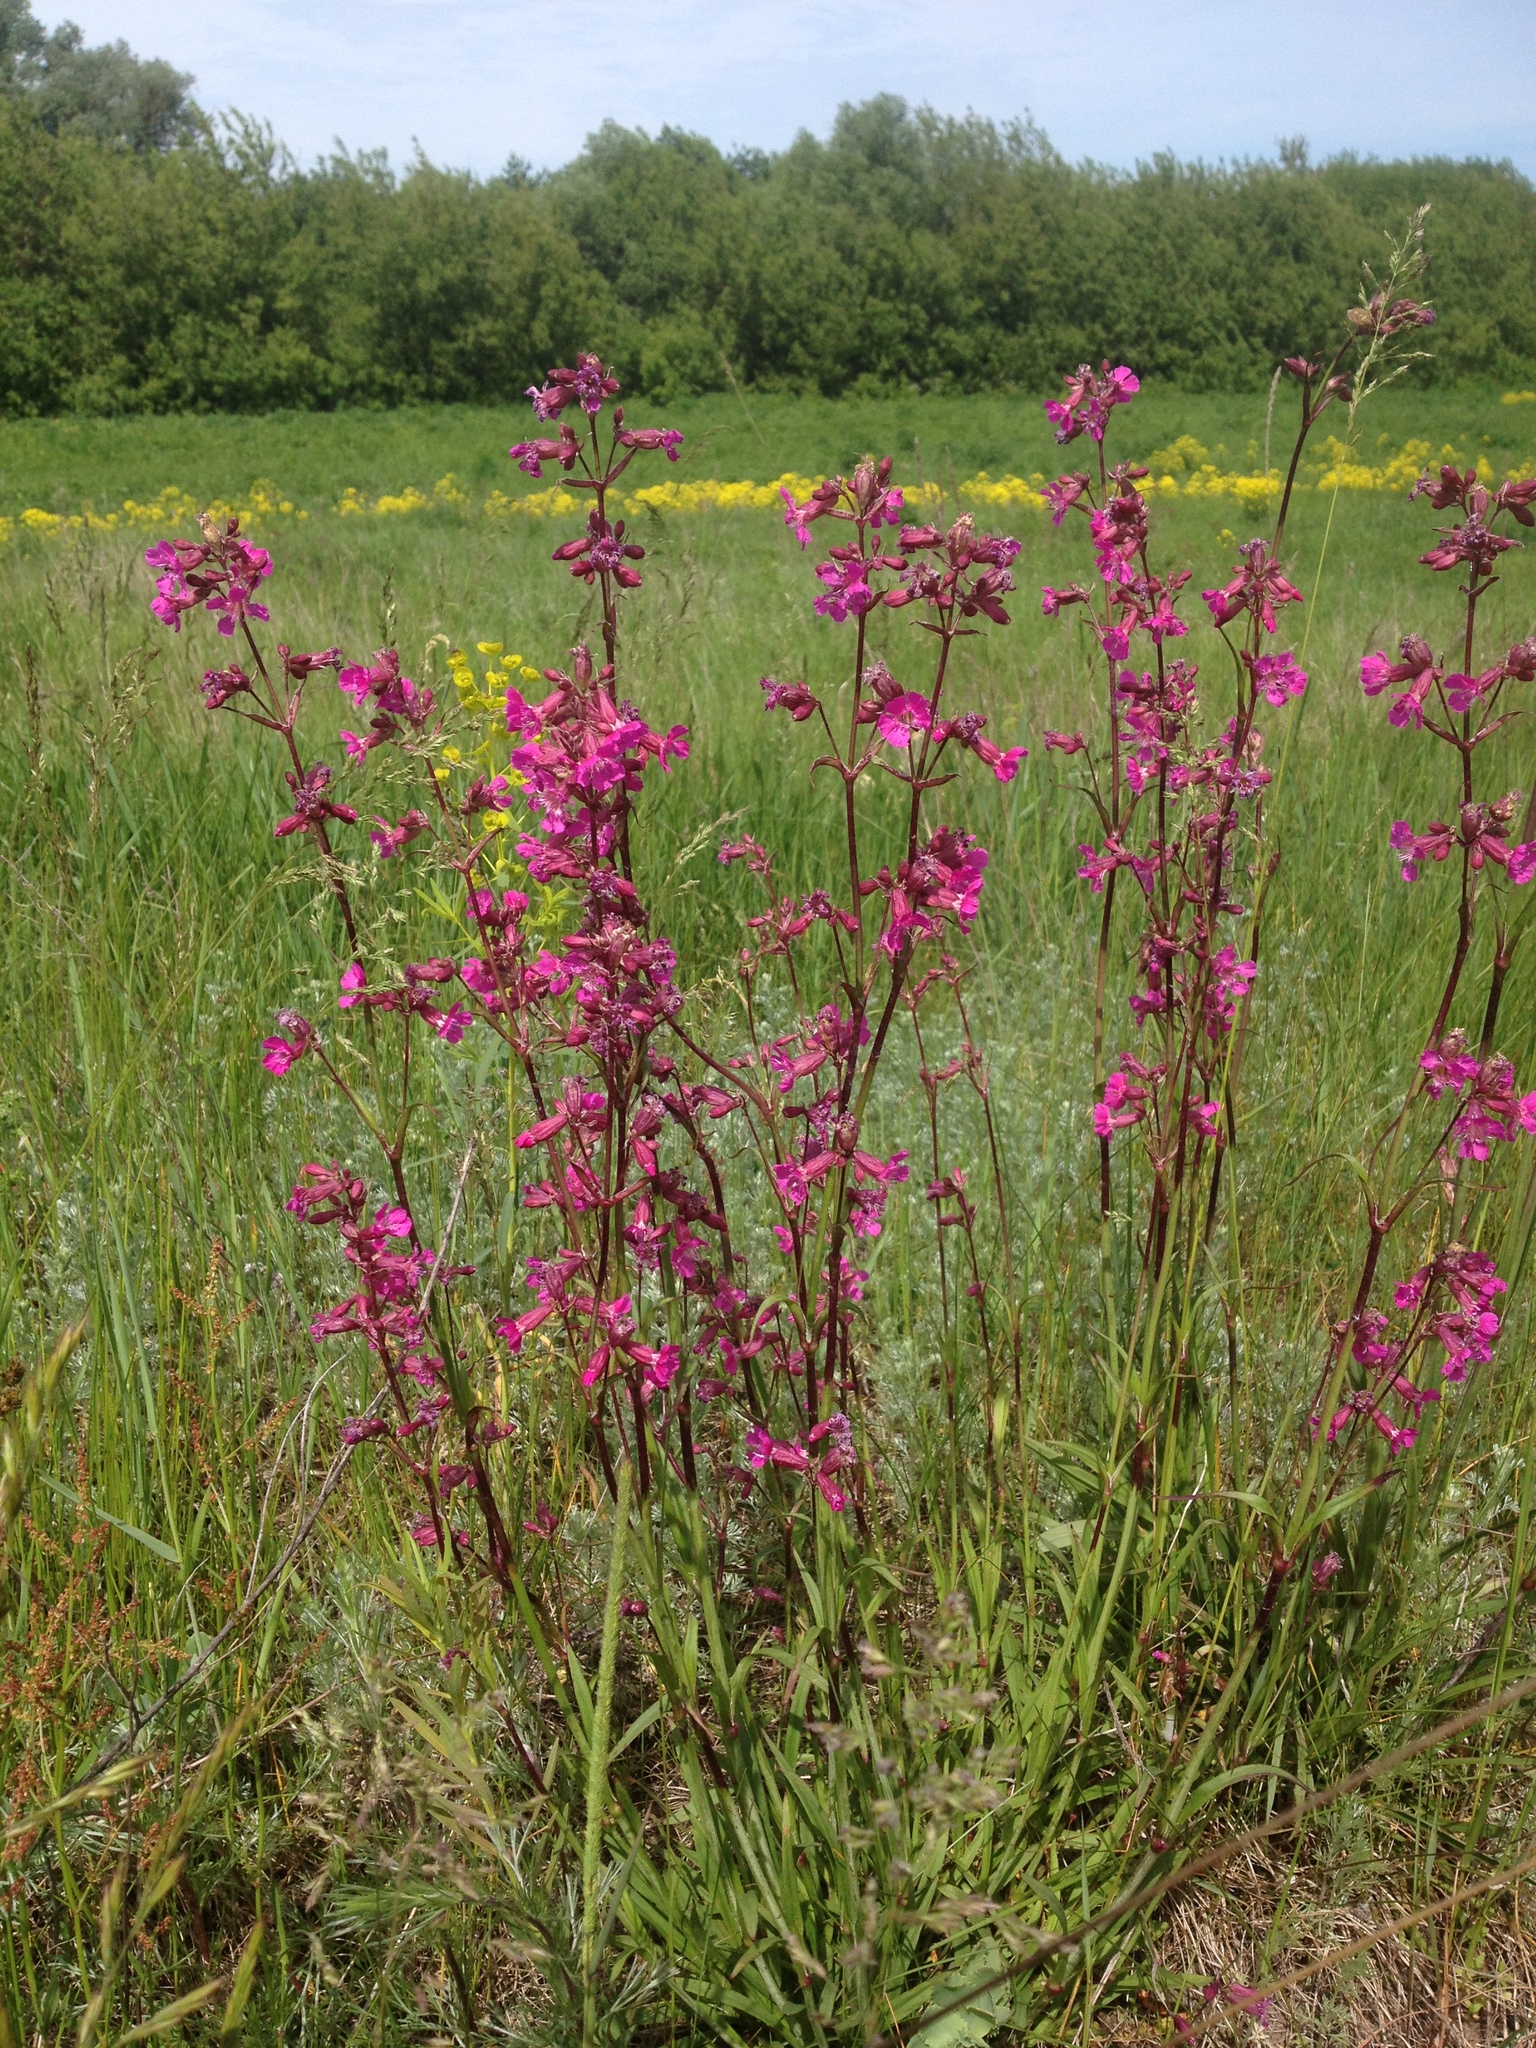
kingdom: Plantae
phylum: Tracheophyta
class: Magnoliopsida
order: Caryophyllales
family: Caryophyllaceae
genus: Viscaria
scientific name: Viscaria vulgaris
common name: Clammy campion
